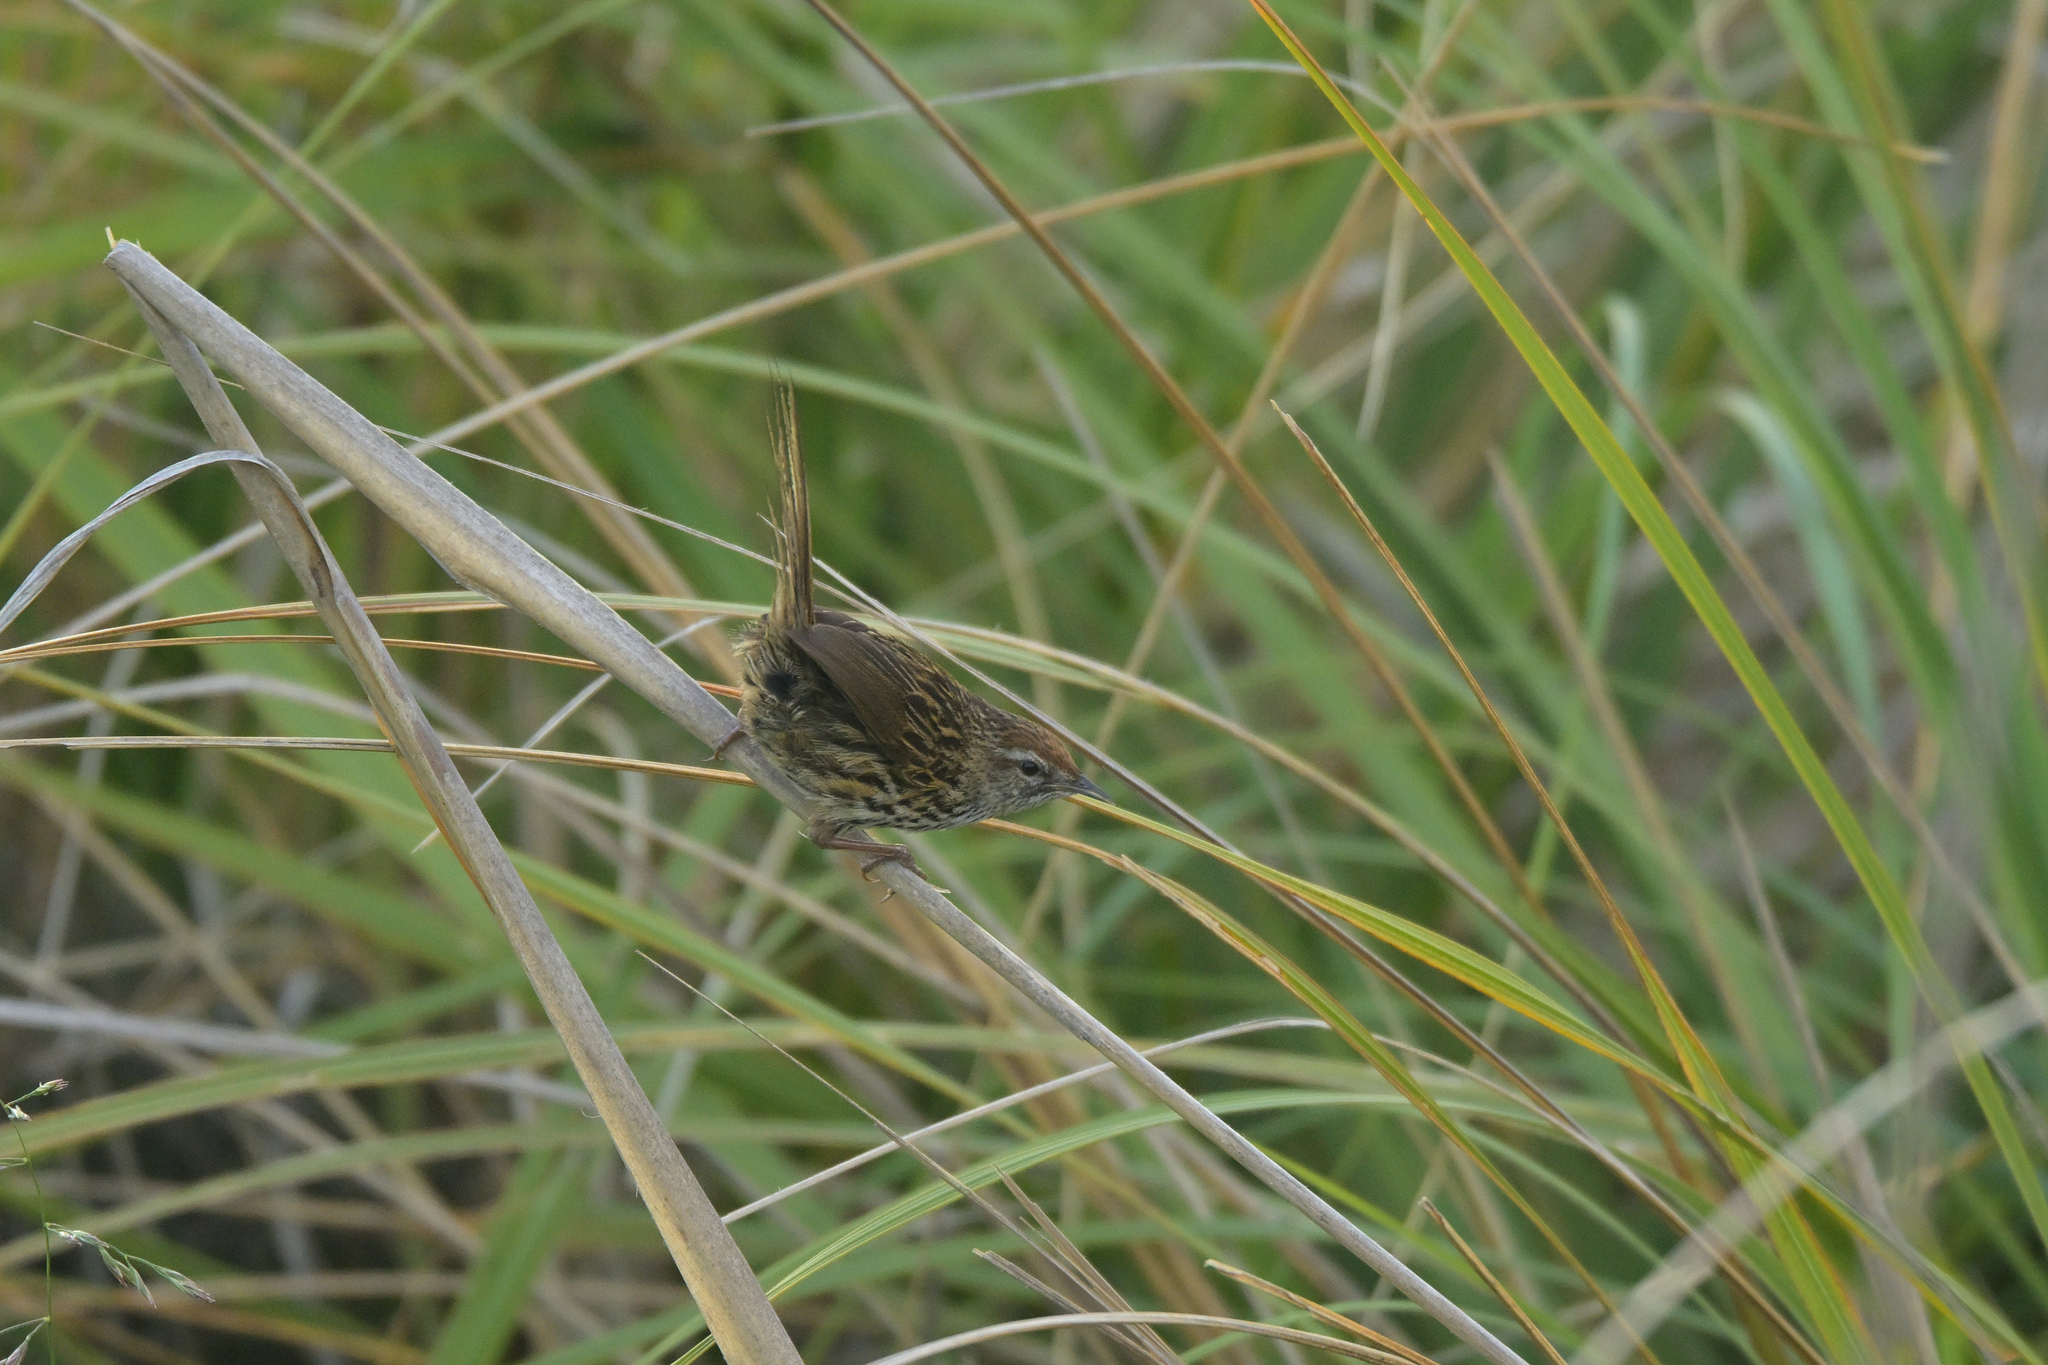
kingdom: Animalia
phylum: Chordata
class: Aves
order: Passeriformes
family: Locustellidae
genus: Megalurus
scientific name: Megalurus punctatus
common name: New zealand fernbird
